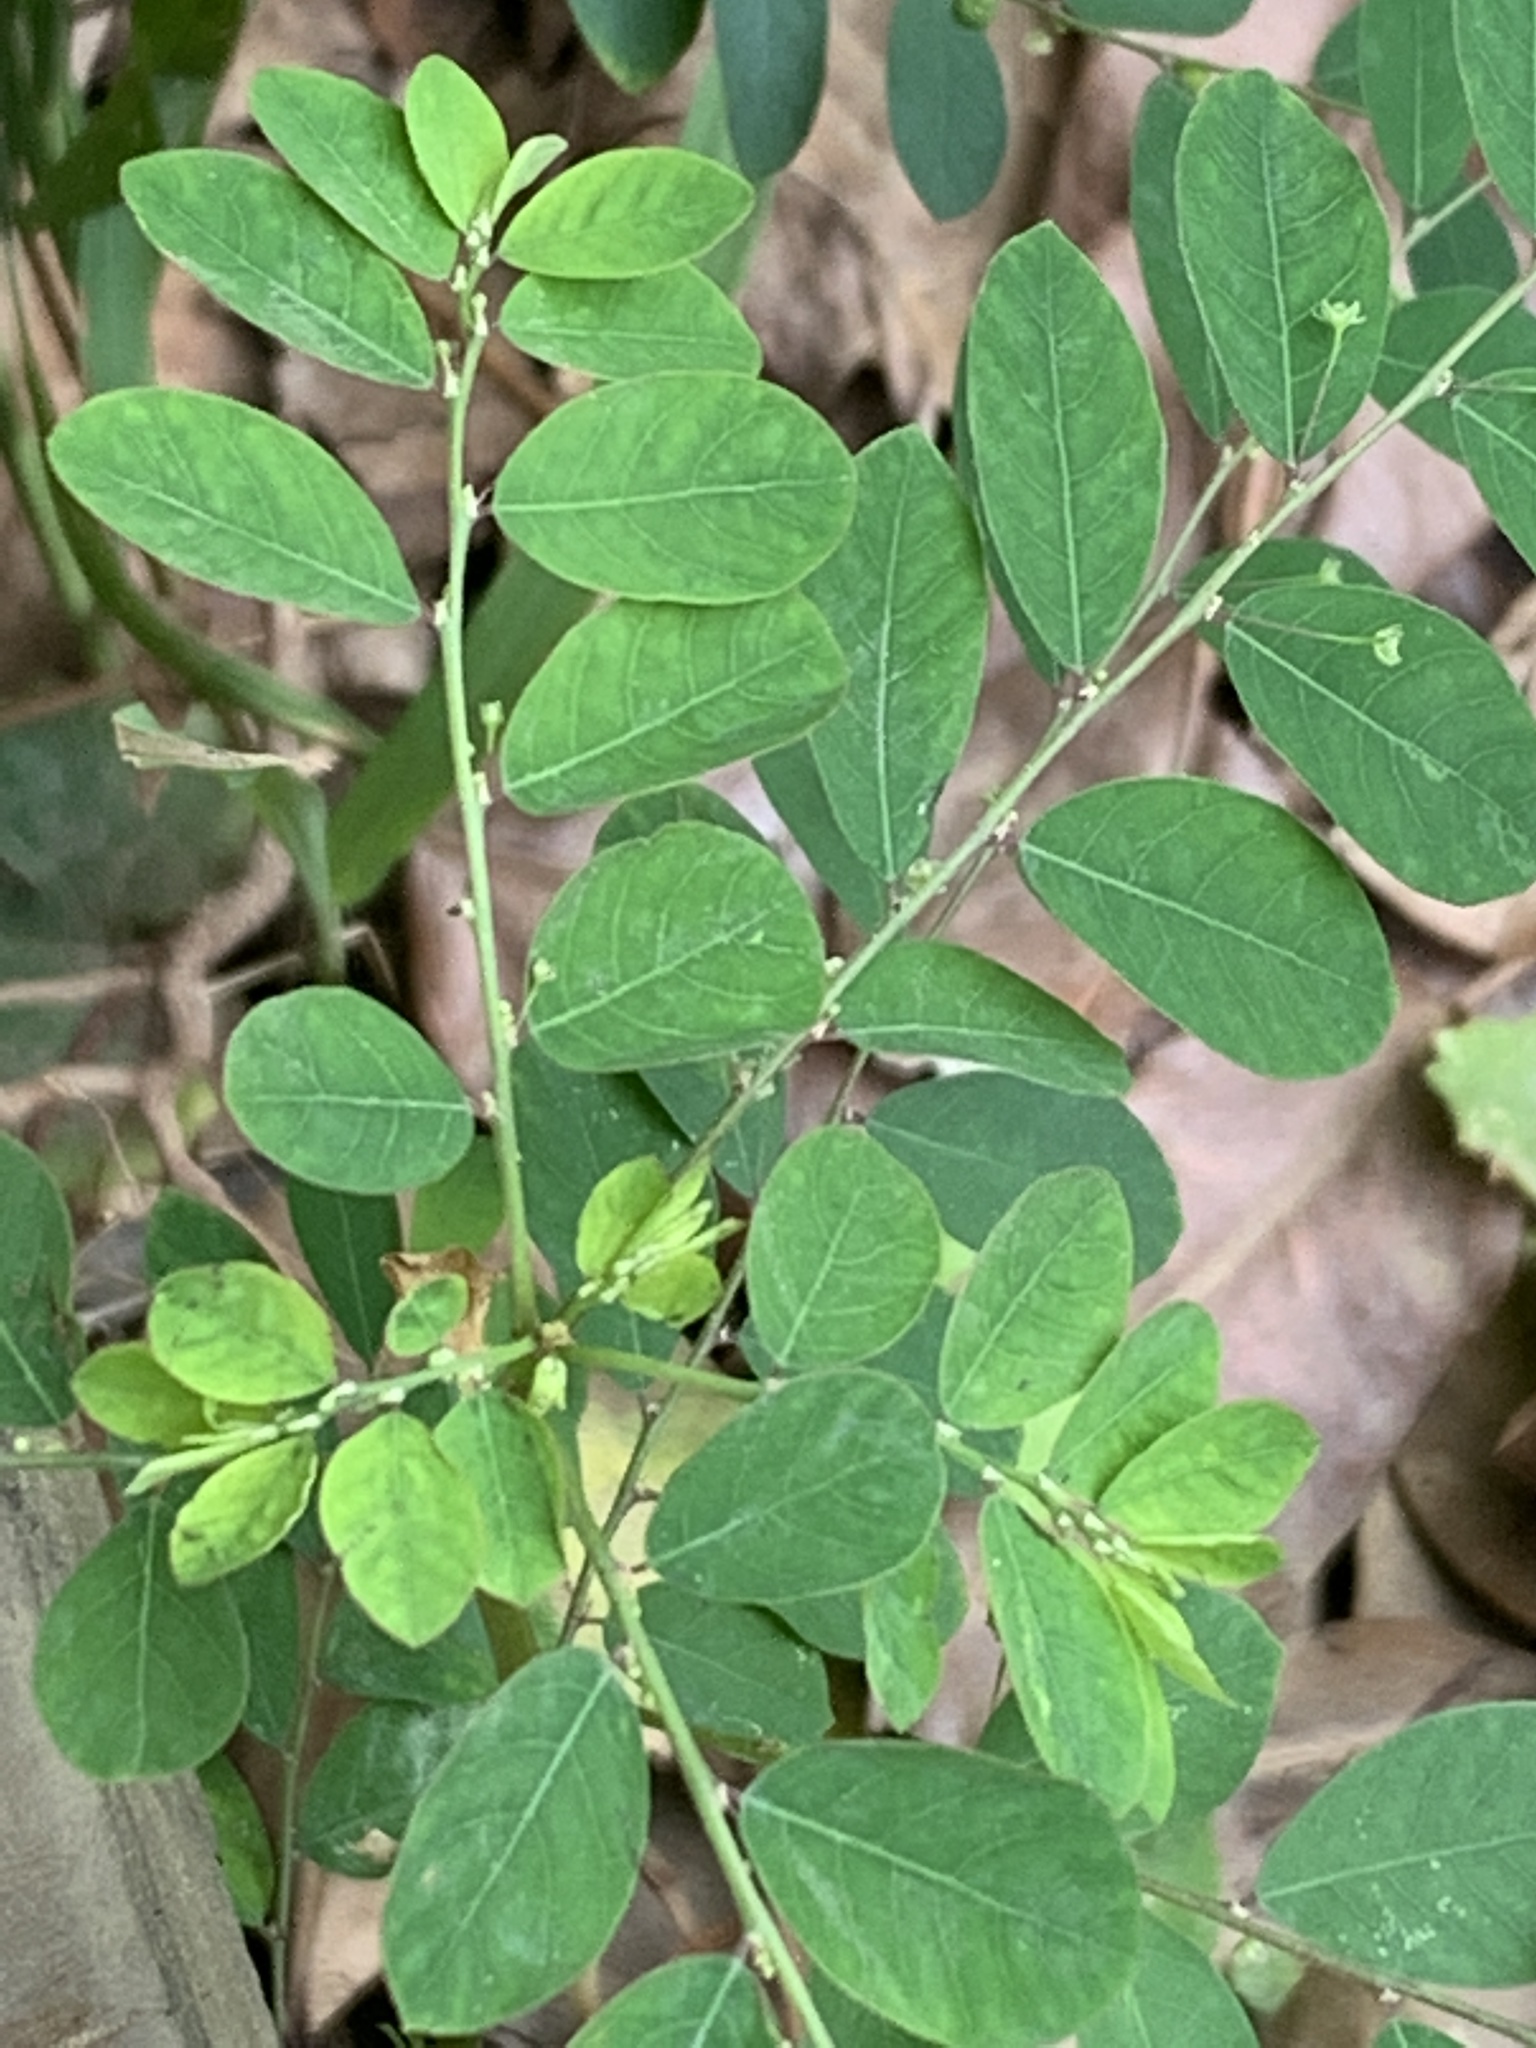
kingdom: Plantae
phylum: Tracheophyta
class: Magnoliopsida
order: Malpighiales
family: Phyllanthaceae
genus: Phyllanthus
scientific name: Phyllanthus tenellus
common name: Mascarene island leaf-flower
